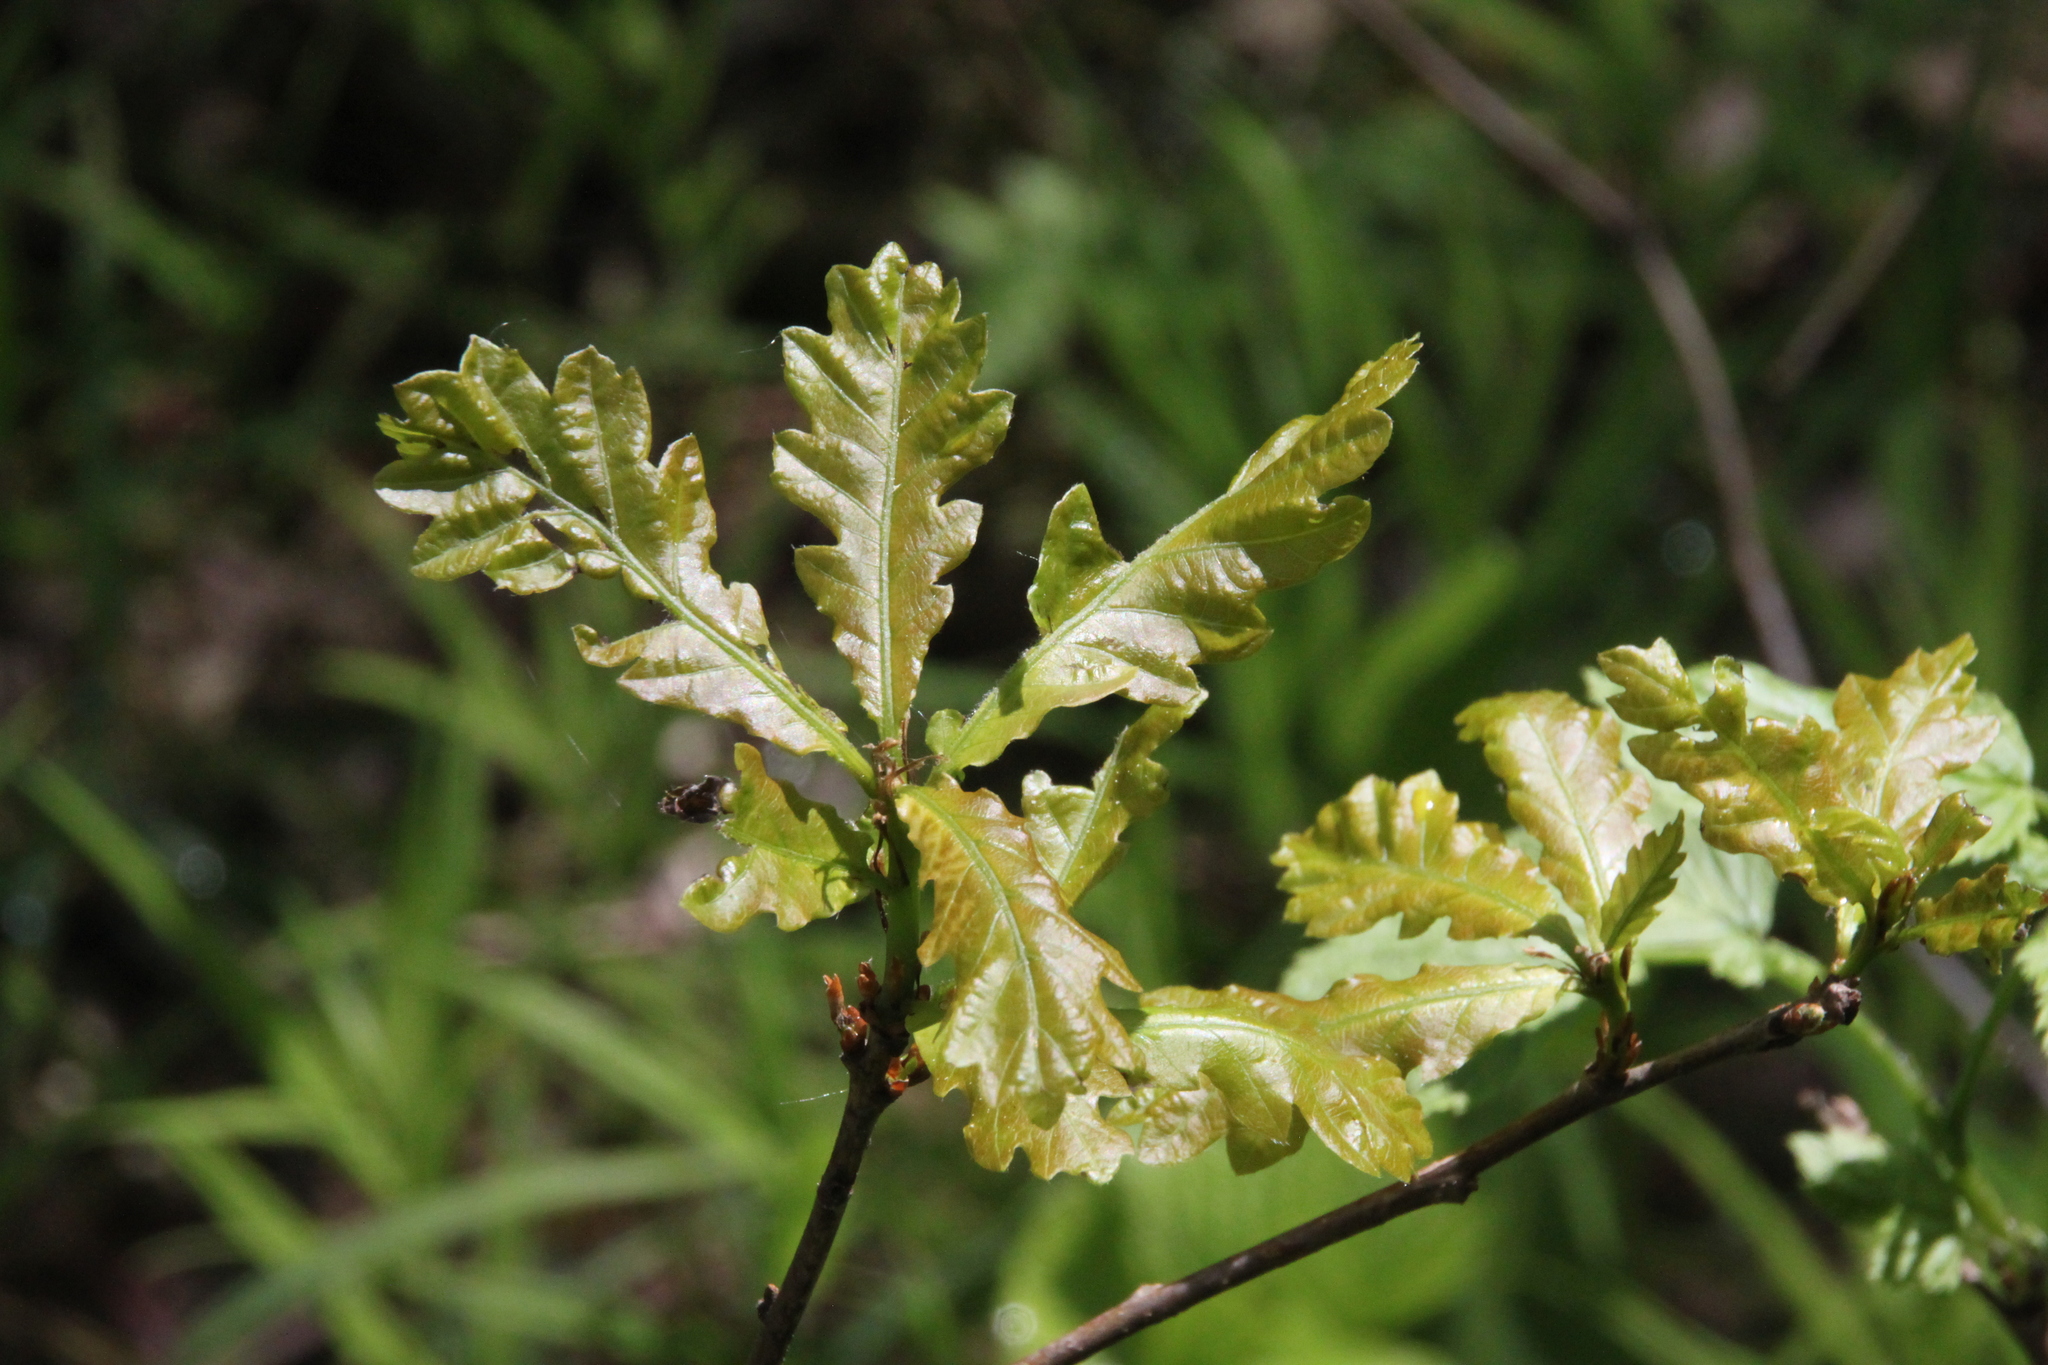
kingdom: Plantae
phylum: Tracheophyta
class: Magnoliopsida
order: Fagales
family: Fagaceae
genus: Quercus
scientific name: Quercus robur
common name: Pedunculate oak
